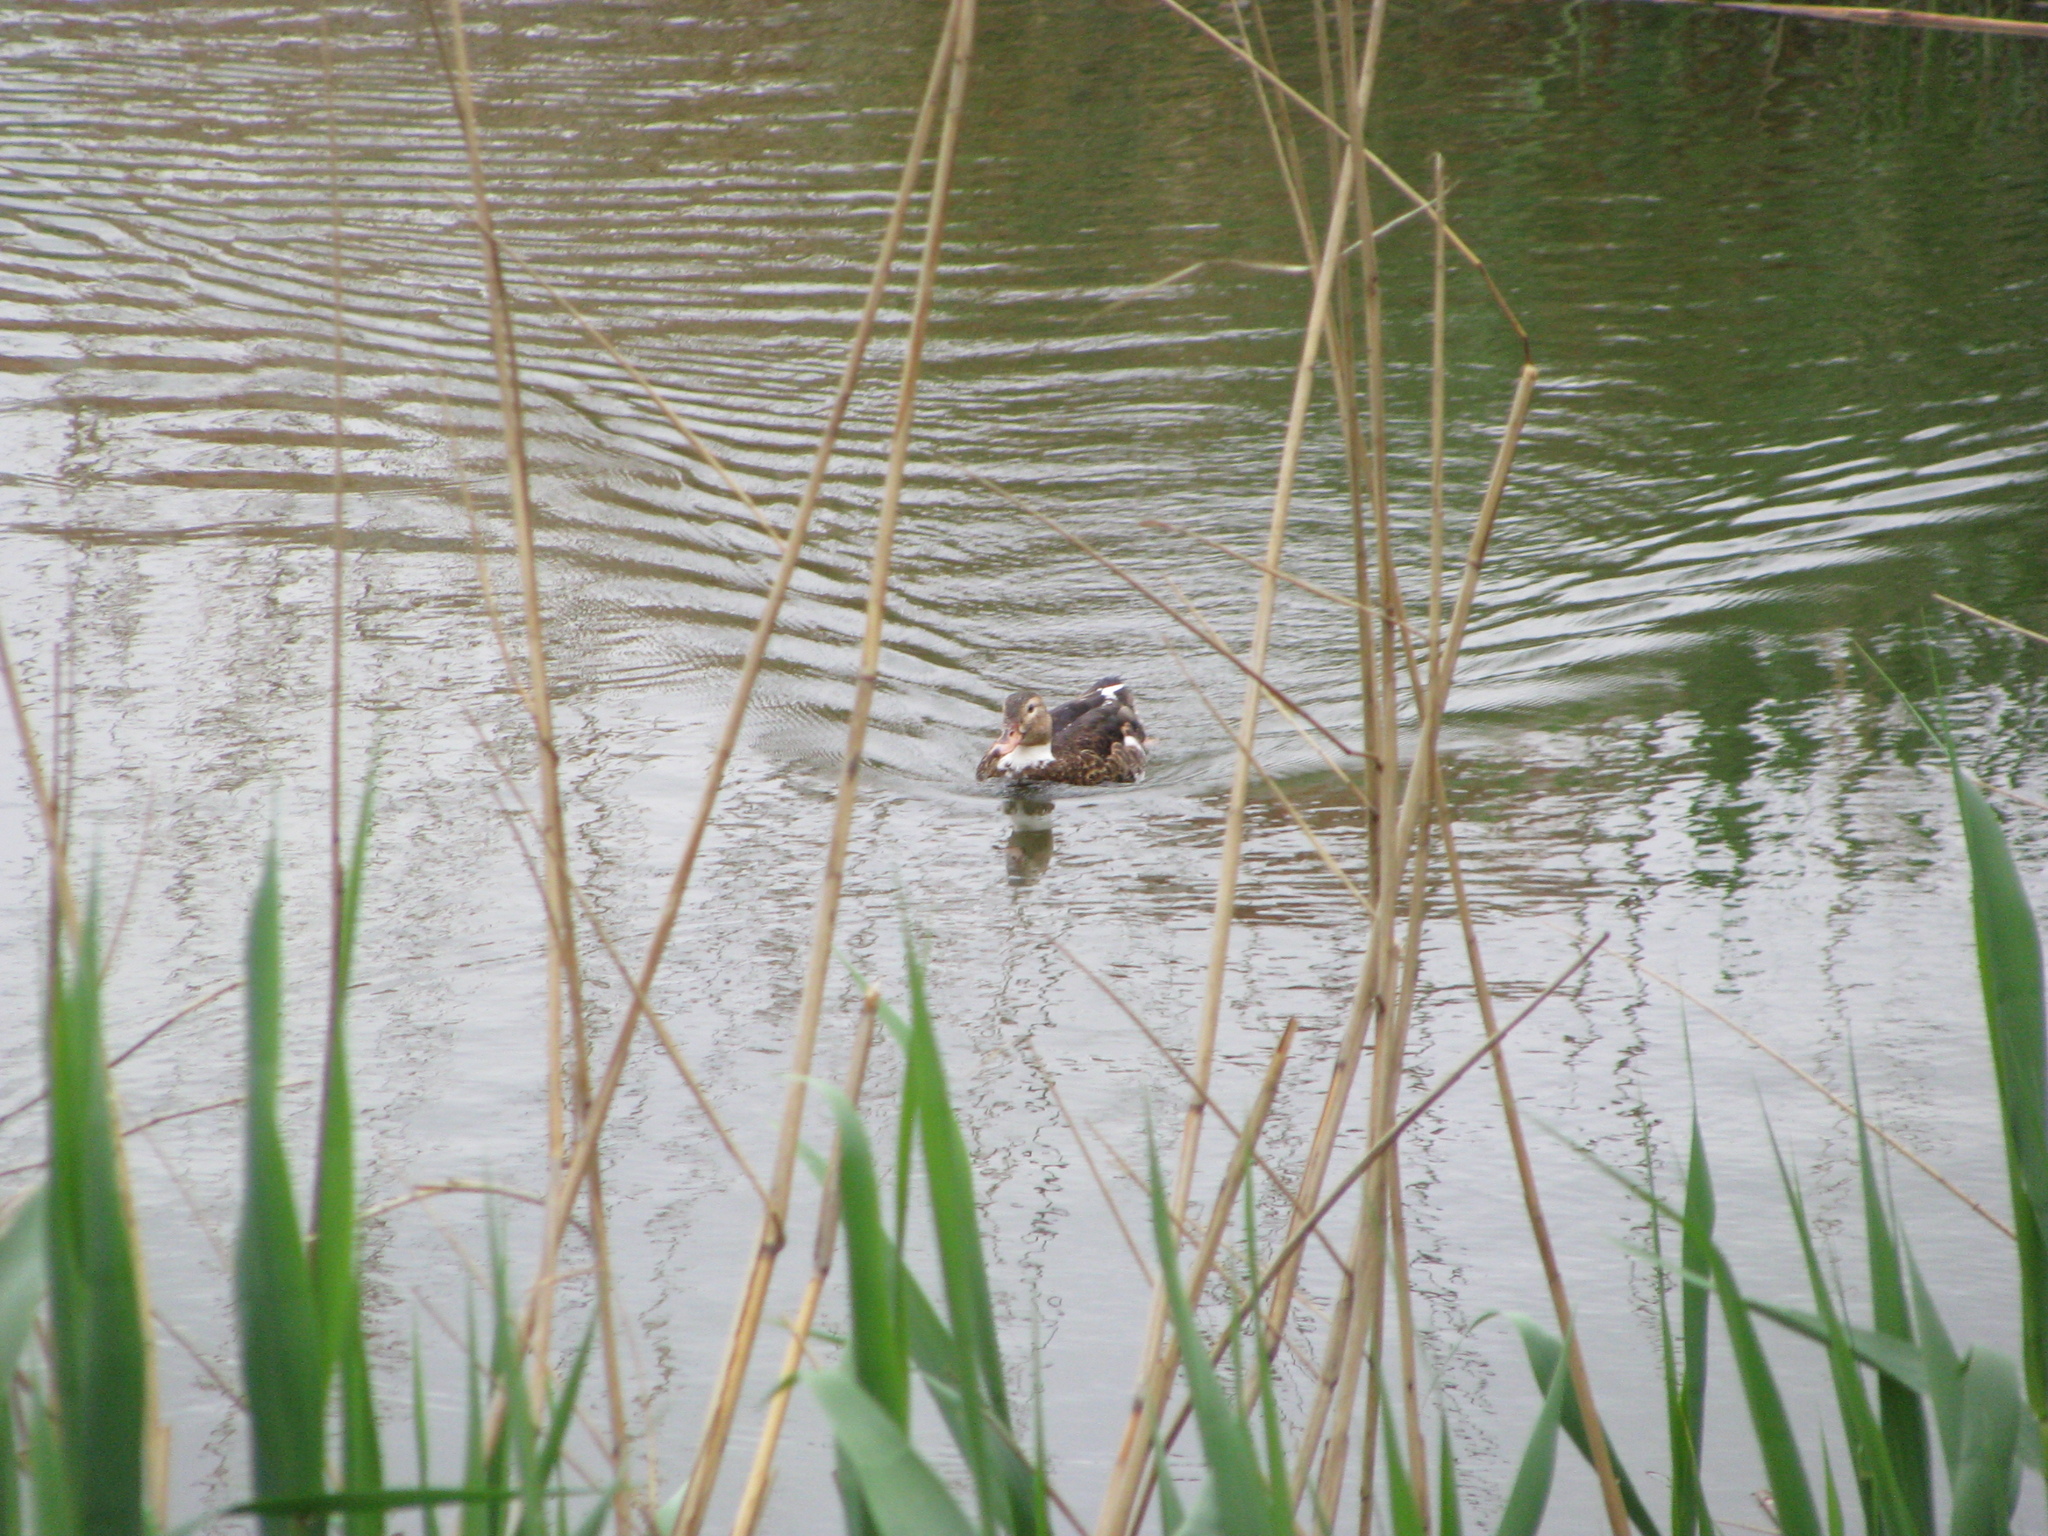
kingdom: Animalia
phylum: Chordata
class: Aves
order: Anseriformes
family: Anatidae
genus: Anas
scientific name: Anas platyrhynchos
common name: Mallard
